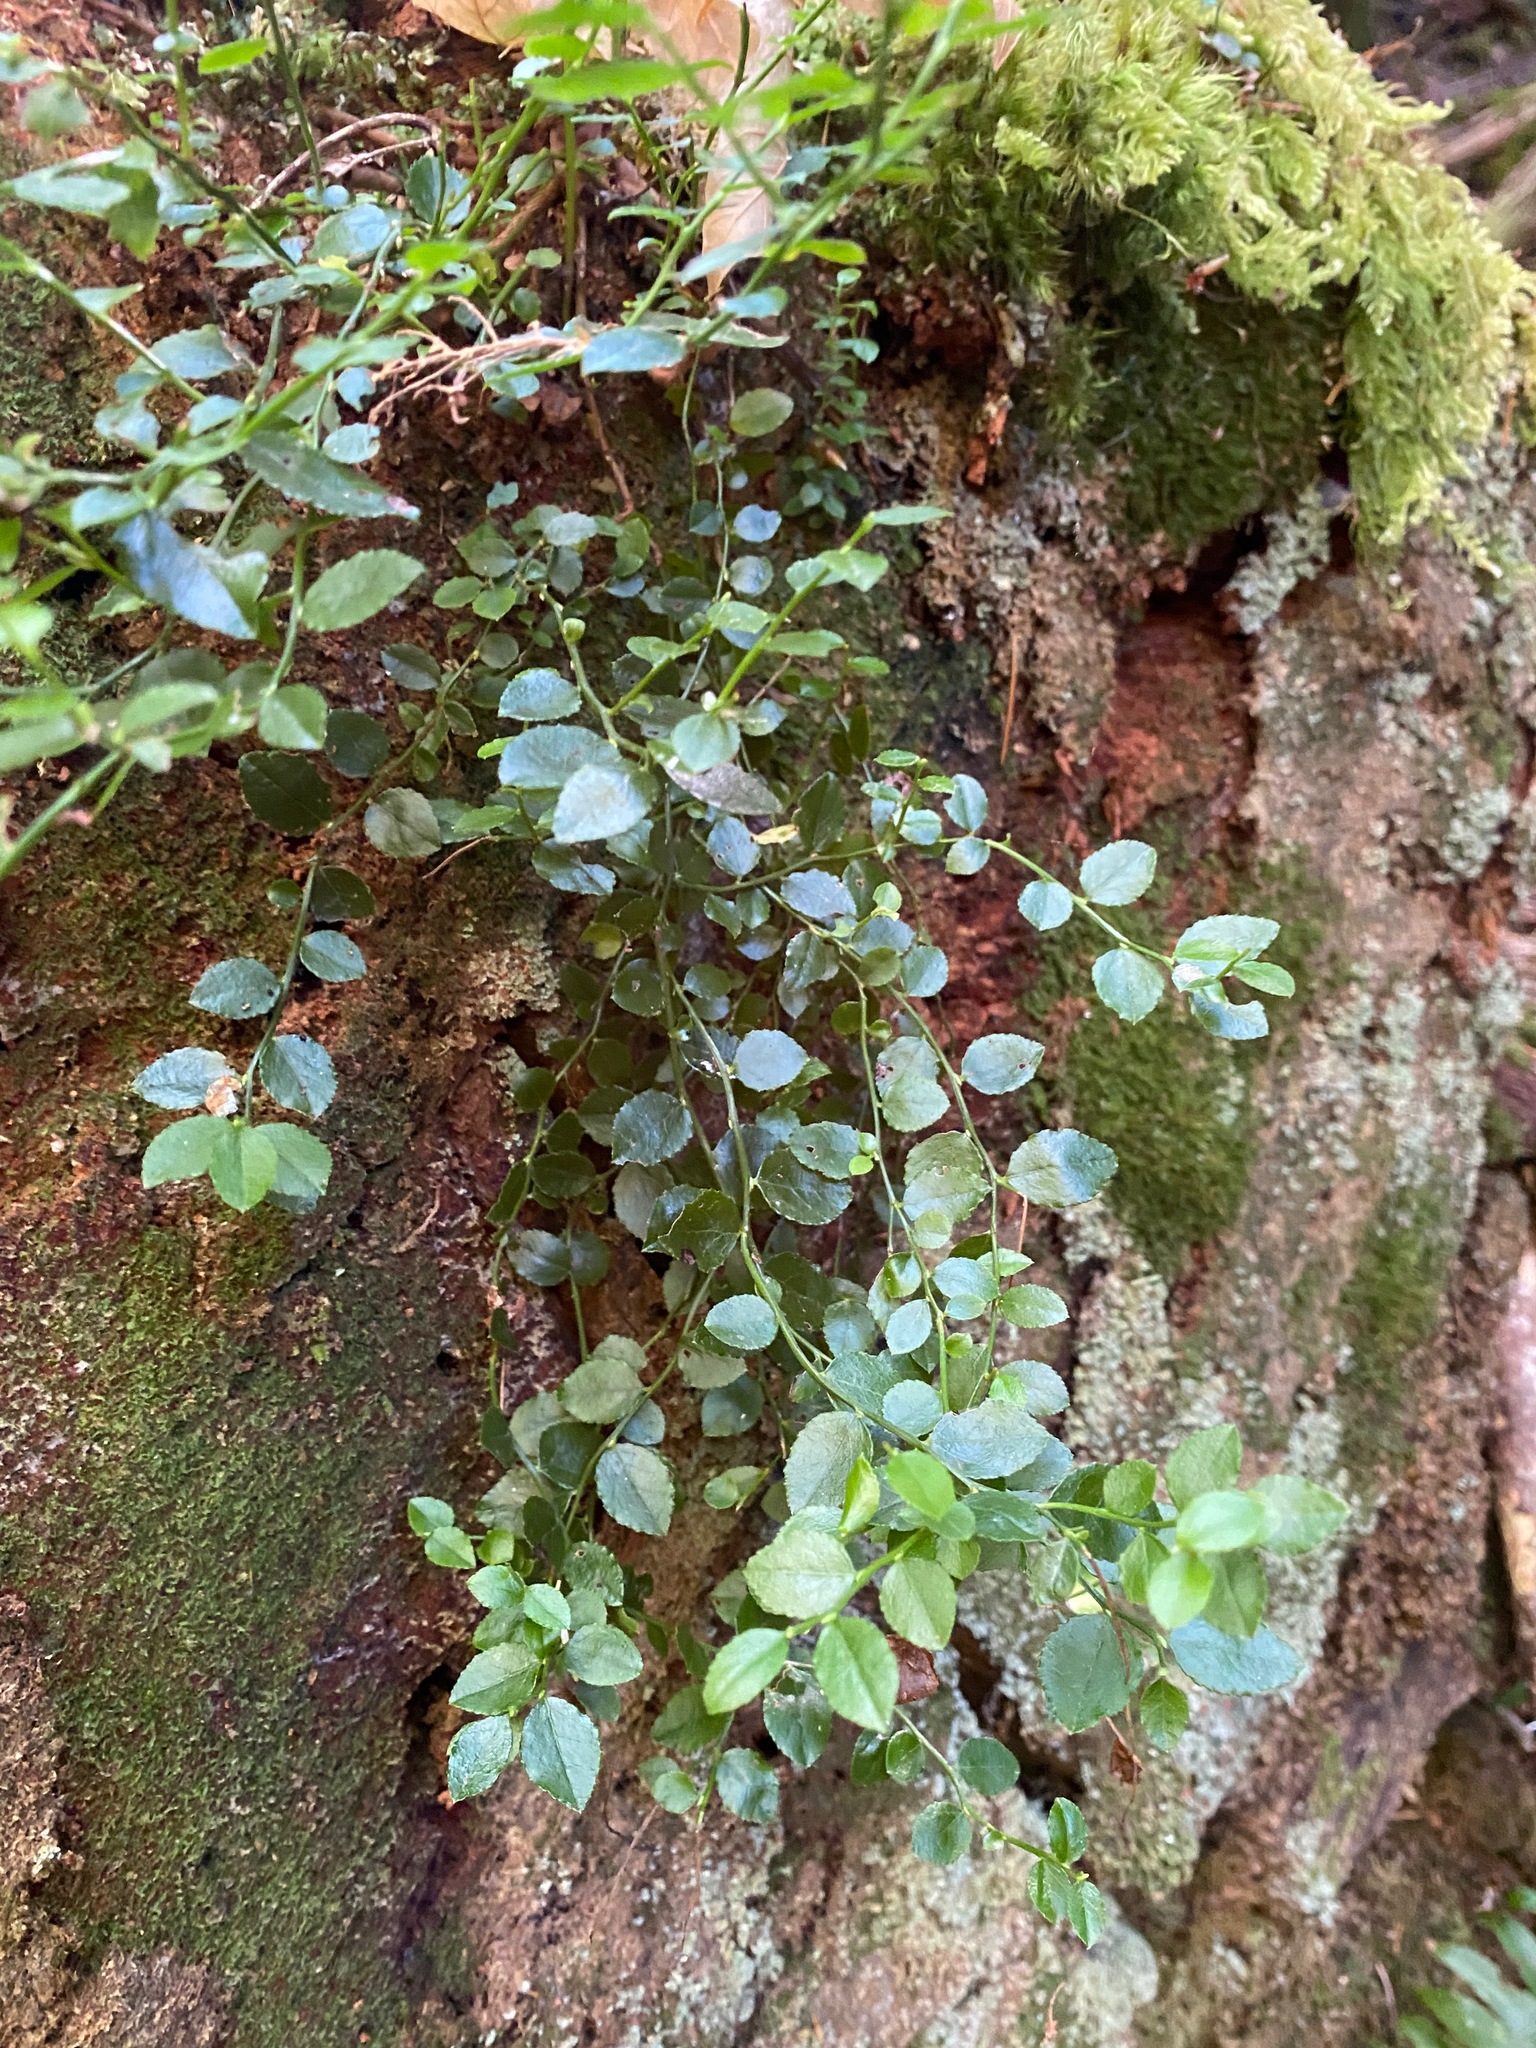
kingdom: Plantae
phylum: Tracheophyta
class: Magnoliopsida
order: Ericales
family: Ericaceae
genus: Vaccinium
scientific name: Vaccinium parvifolium
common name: Red-huckleberry
